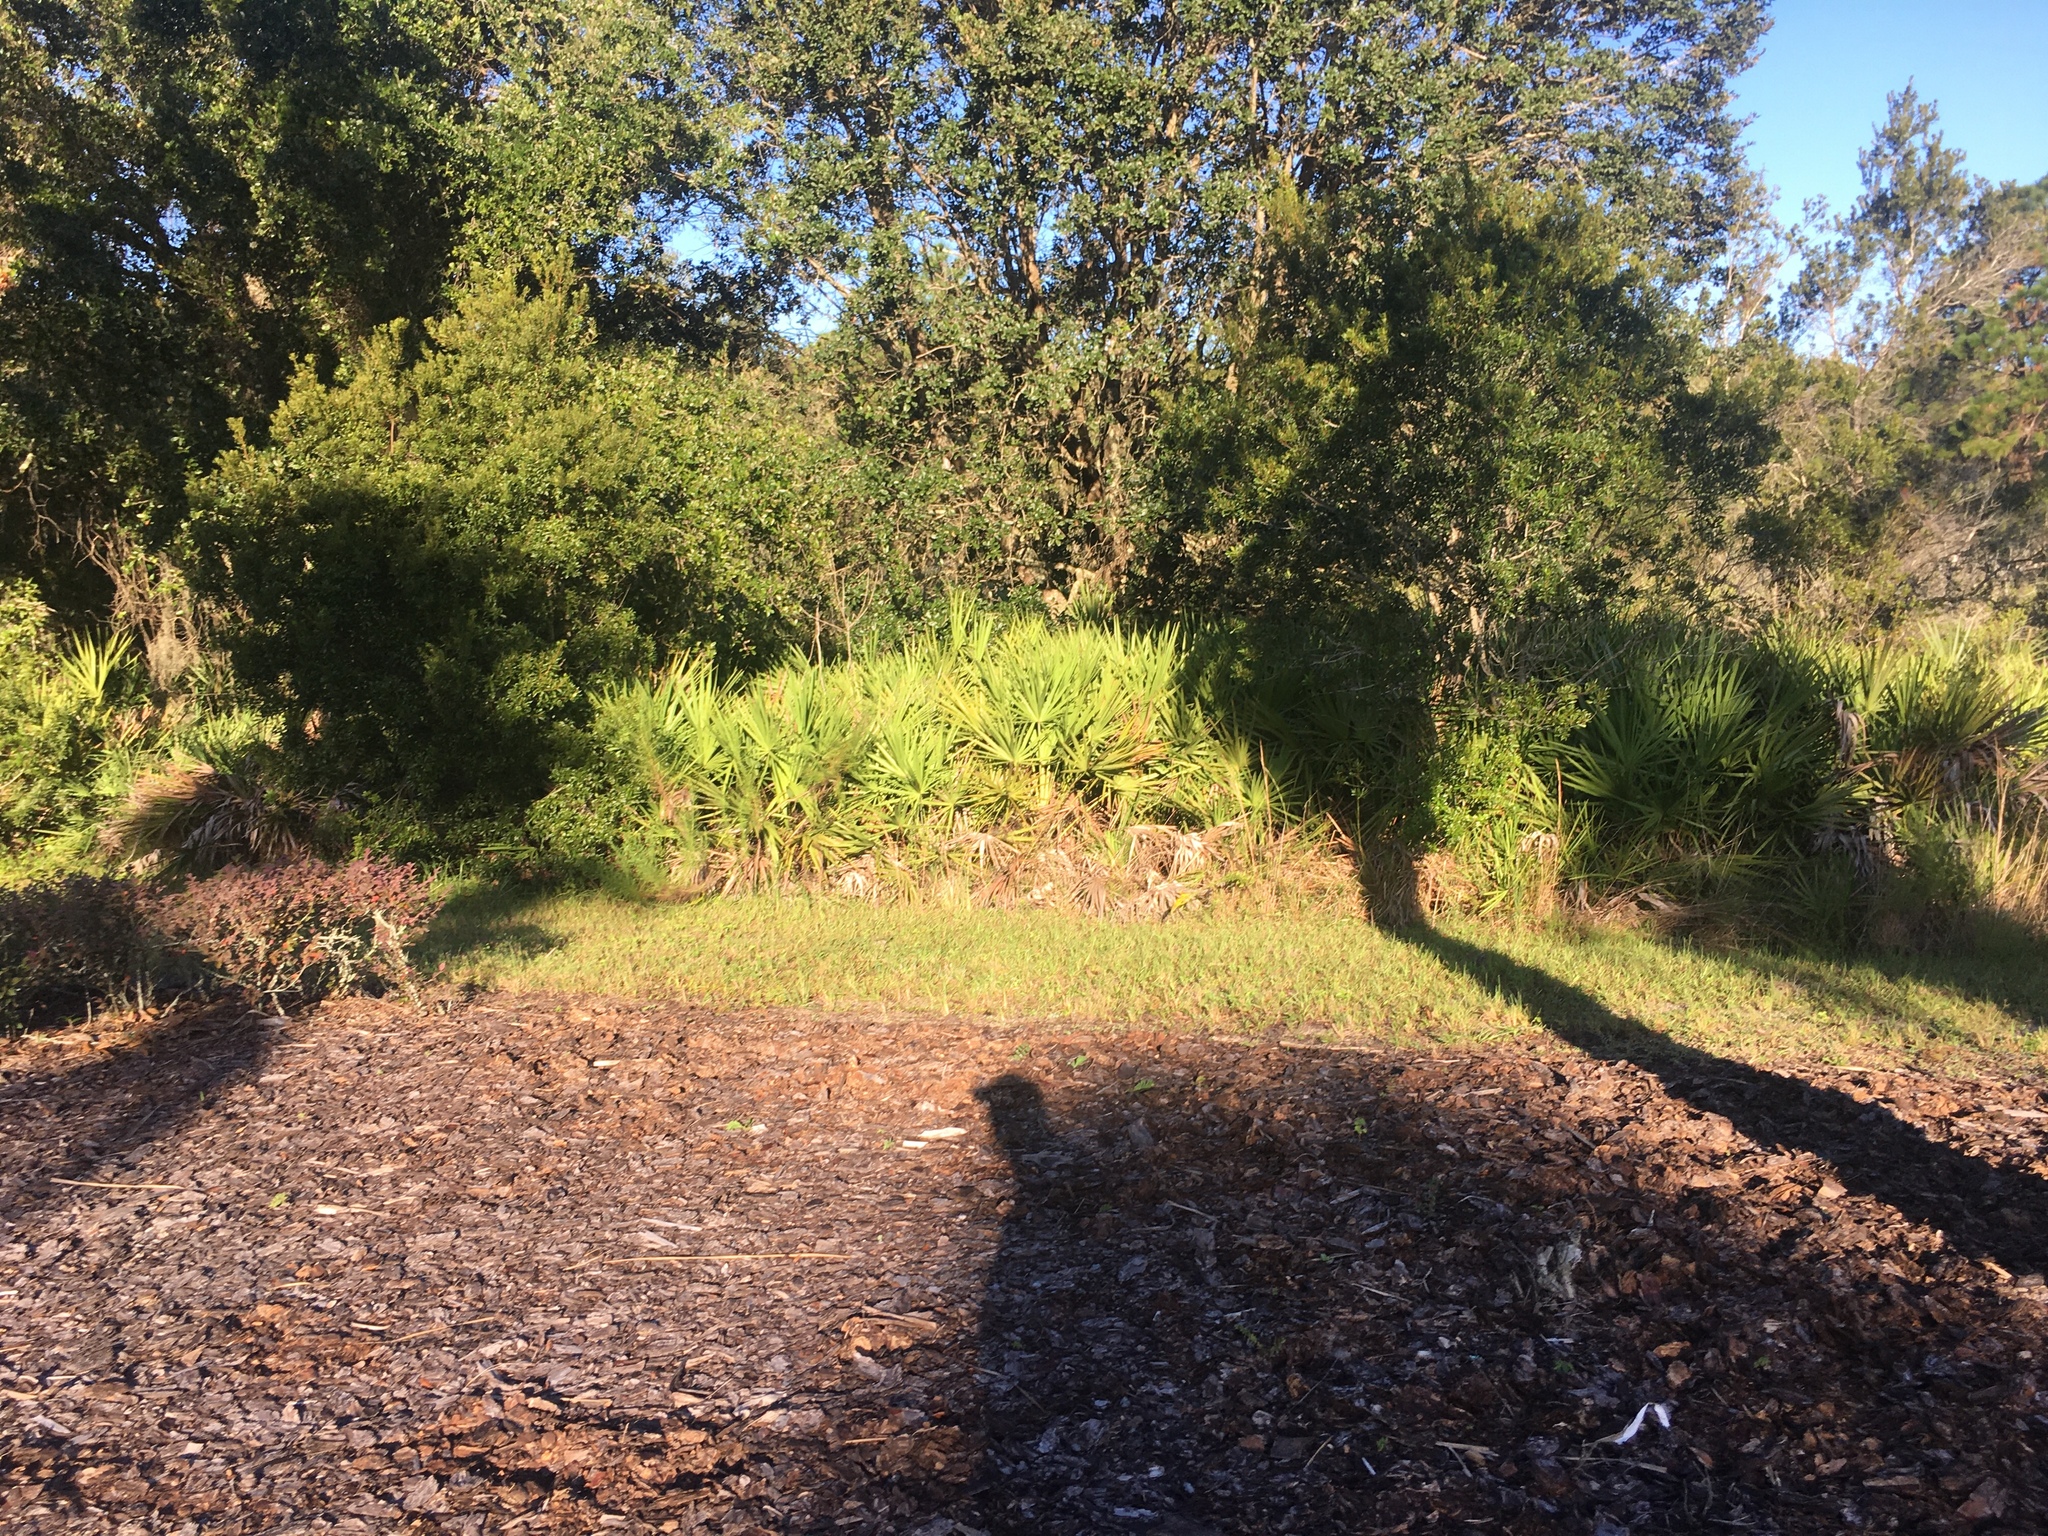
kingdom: Plantae
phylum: Tracheophyta
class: Liliopsida
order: Arecales
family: Arecaceae
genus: Serenoa
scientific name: Serenoa repens
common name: Saw-palmetto
